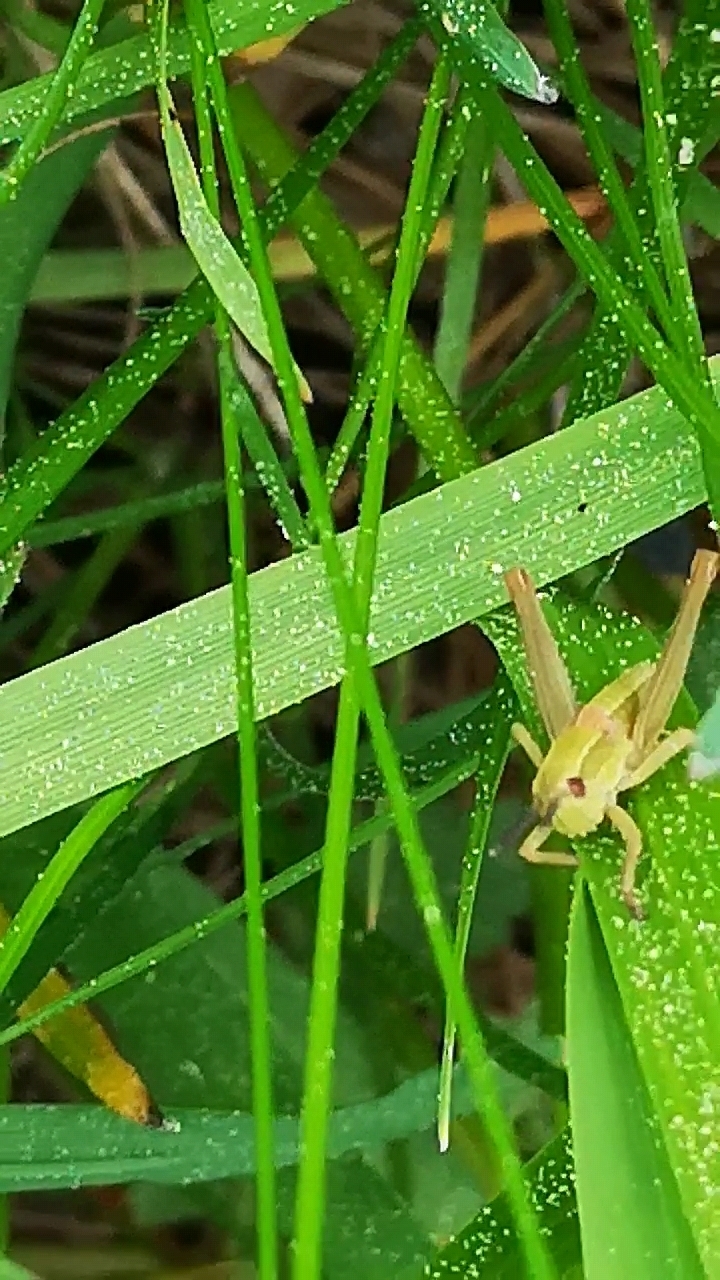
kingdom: Animalia
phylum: Arthropoda
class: Insecta
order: Orthoptera
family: Acrididae
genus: Euthystira
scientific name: Euthystira brachyptera
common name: Small gold grasshopper
